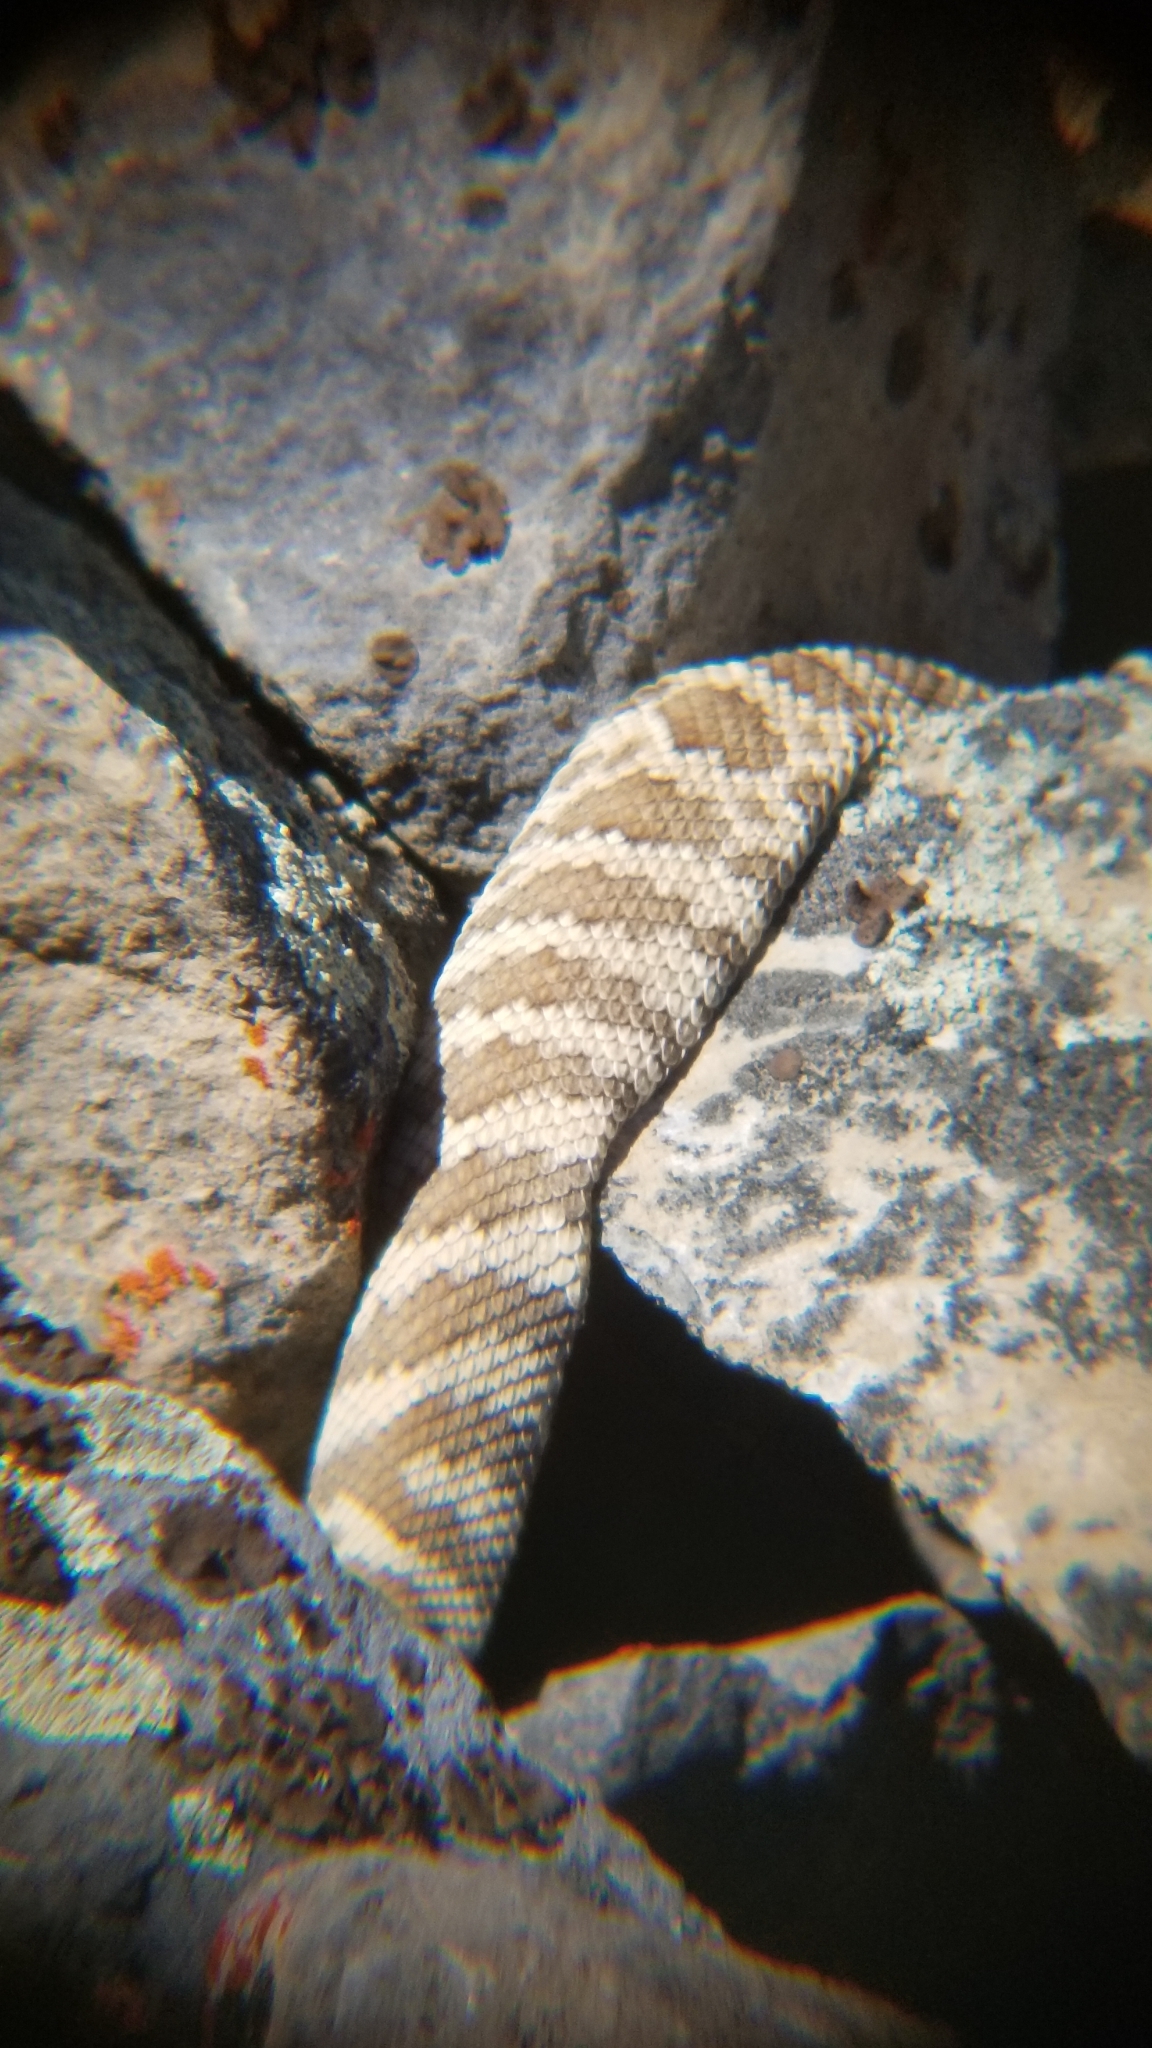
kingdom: Animalia
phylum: Chordata
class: Squamata
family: Viperidae
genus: Crotalus
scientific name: Crotalus oreganus
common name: Abyssus
